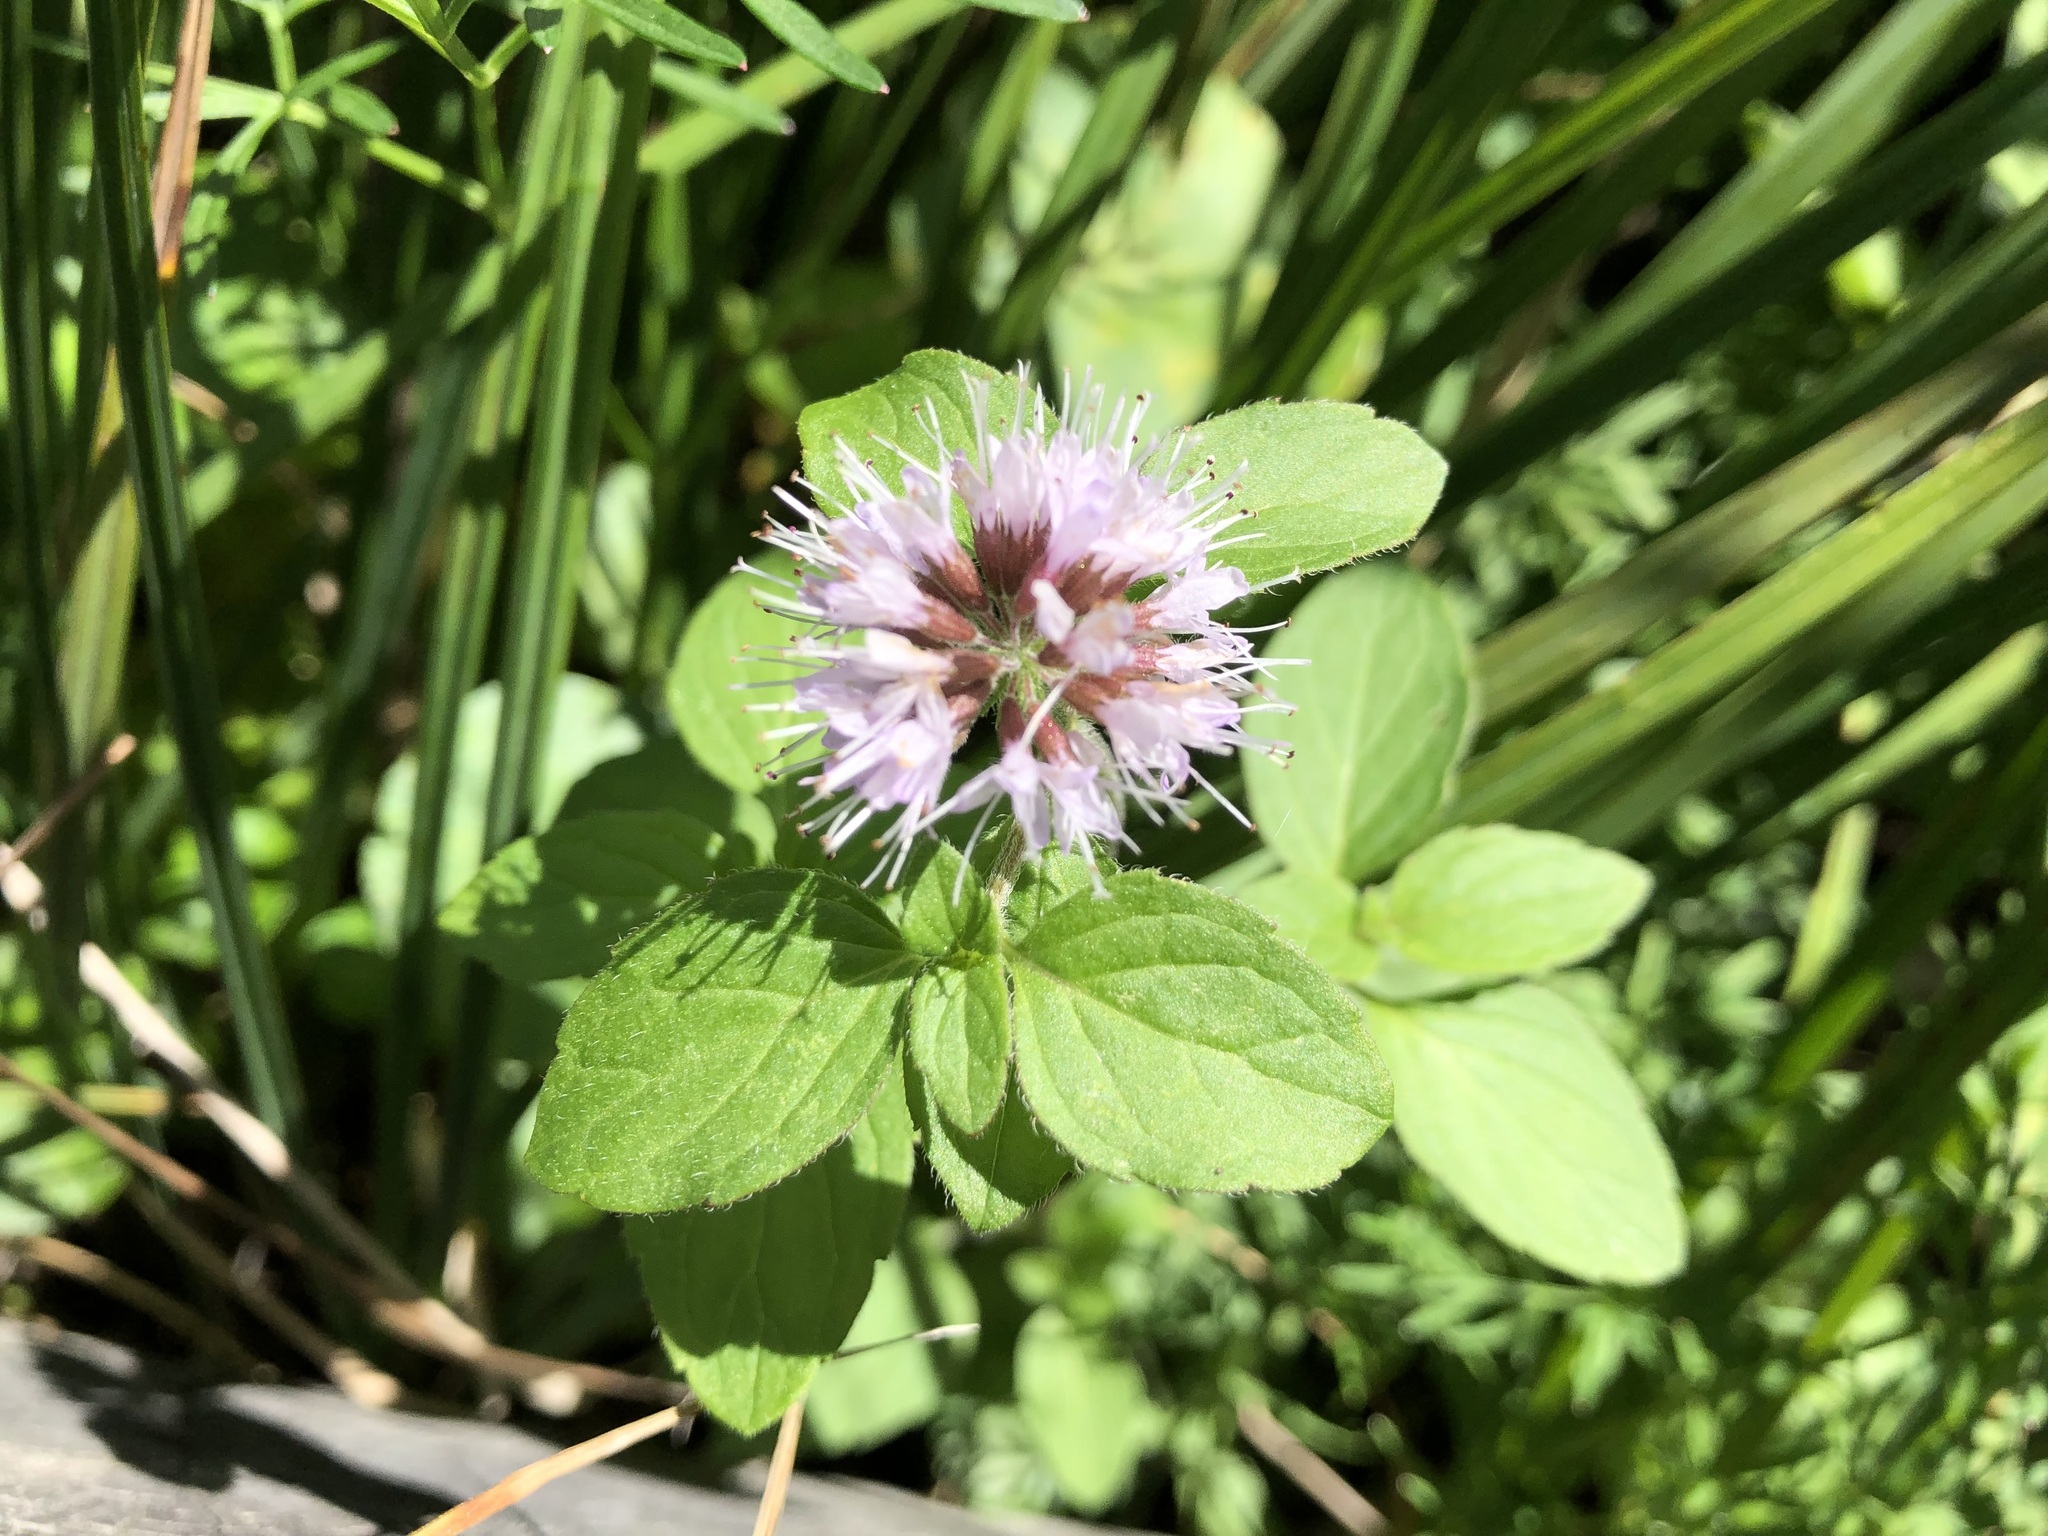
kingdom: Plantae
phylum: Tracheophyta
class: Magnoliopsida
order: Lamiales
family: Lamiaceae
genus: Mentha
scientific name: Mentha aquatica
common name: Water mint
